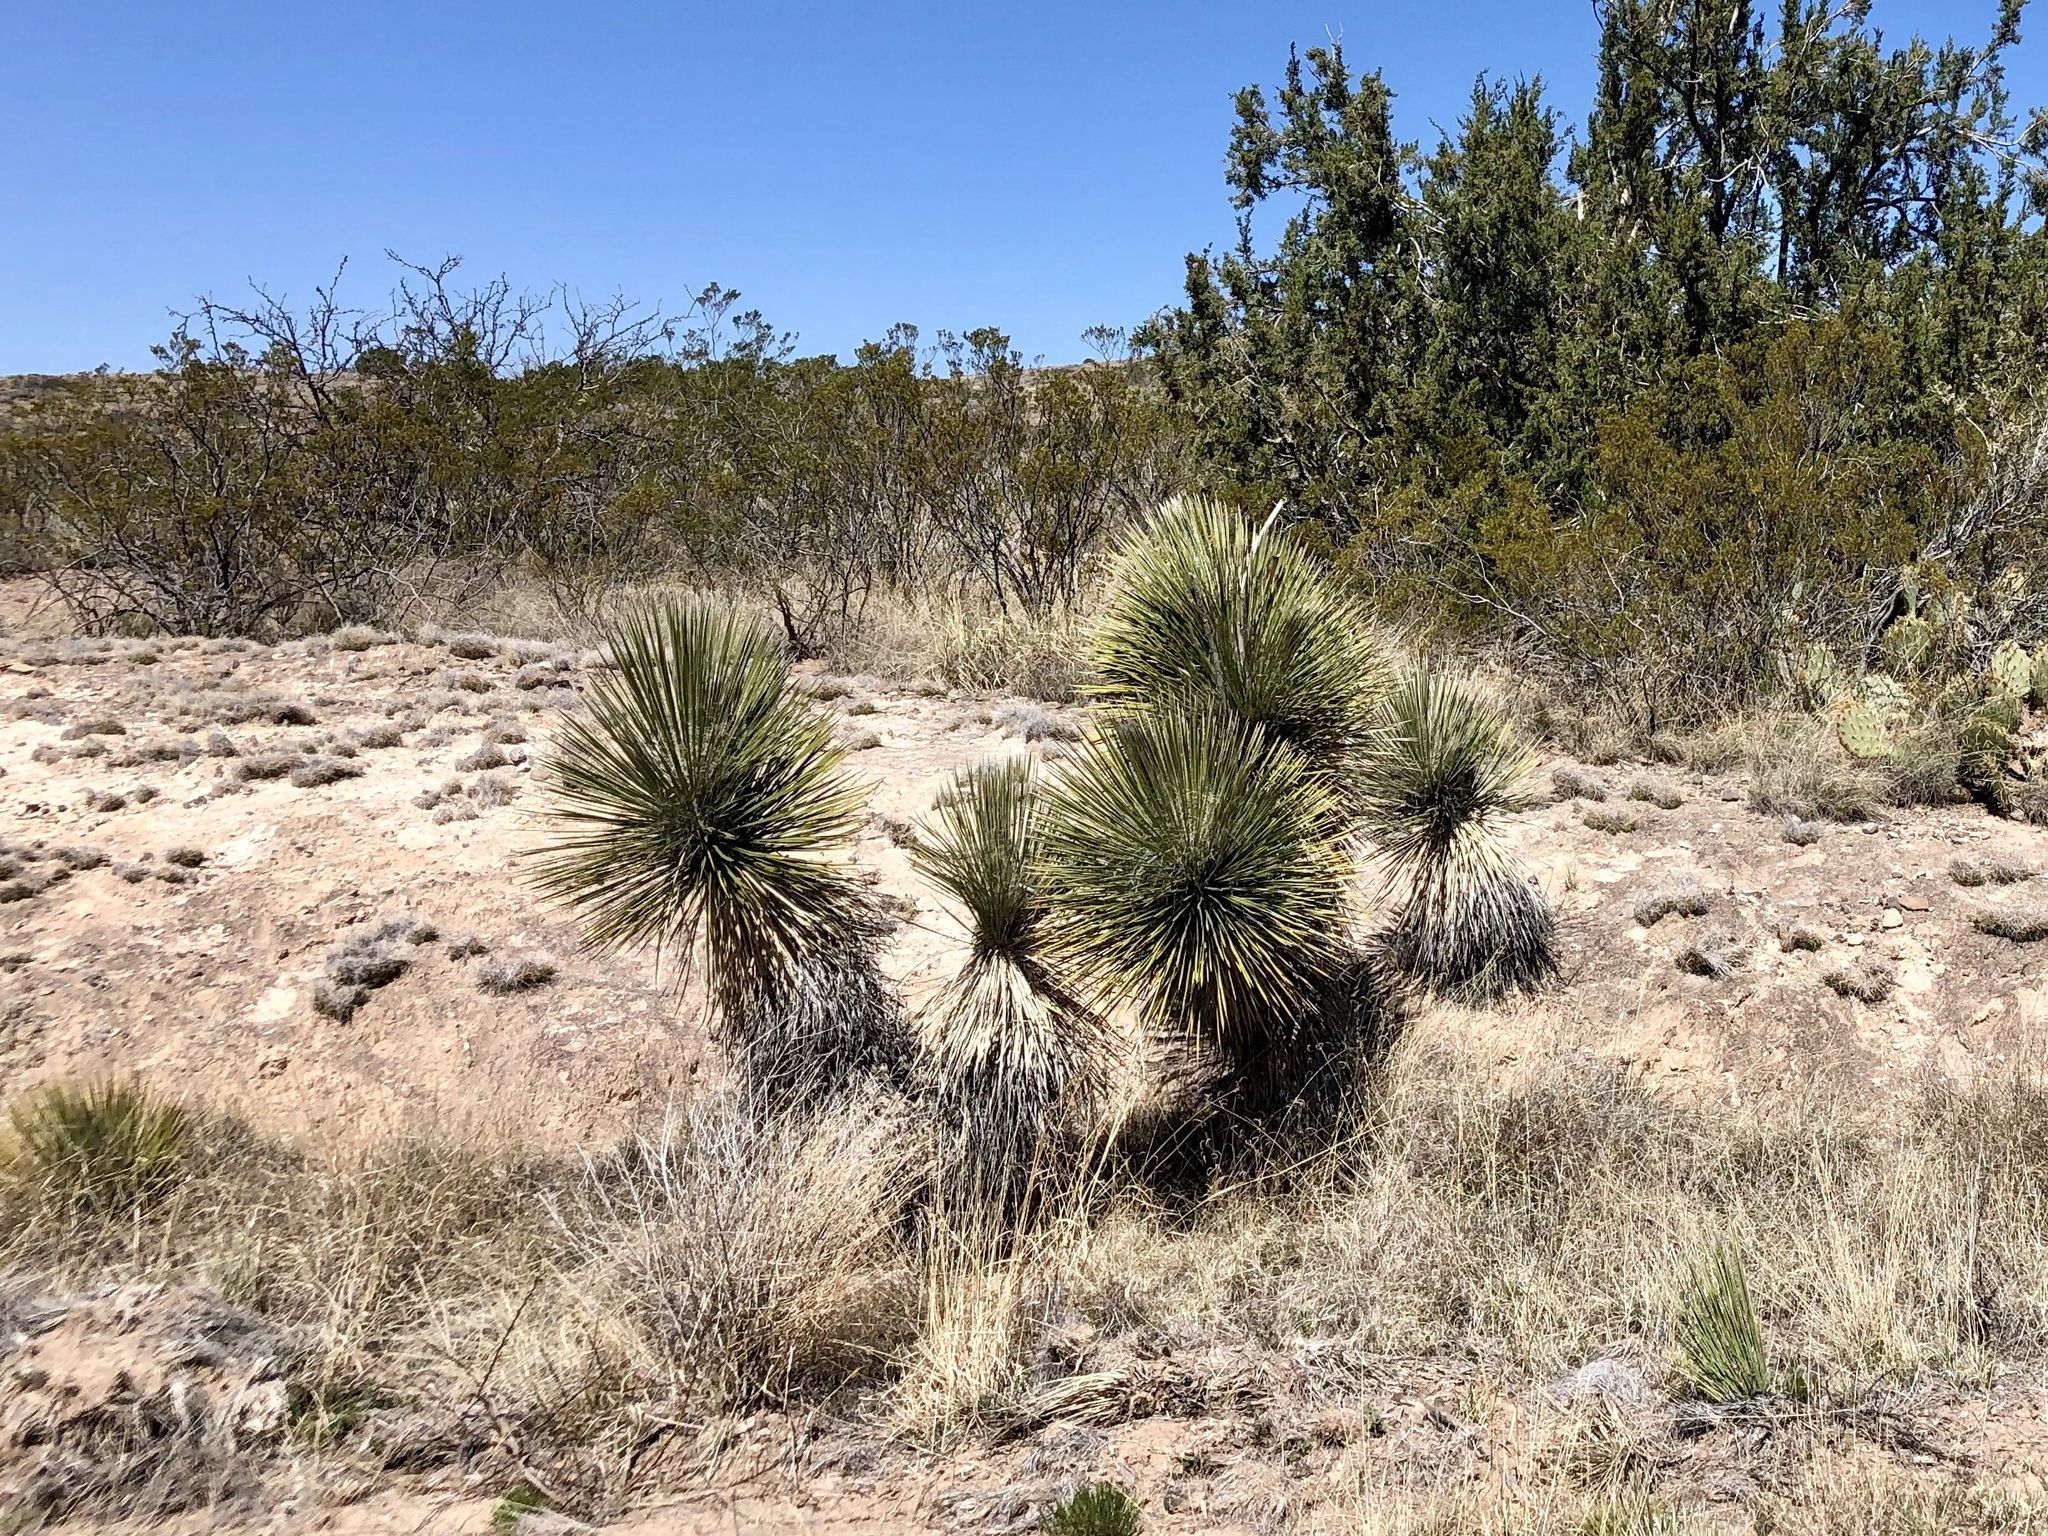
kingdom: Plantae
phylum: Tracheophyta
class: Liliopsida
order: Asparagales
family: Asparagaceae
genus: Yucca
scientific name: Yucca elata
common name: Palmella
